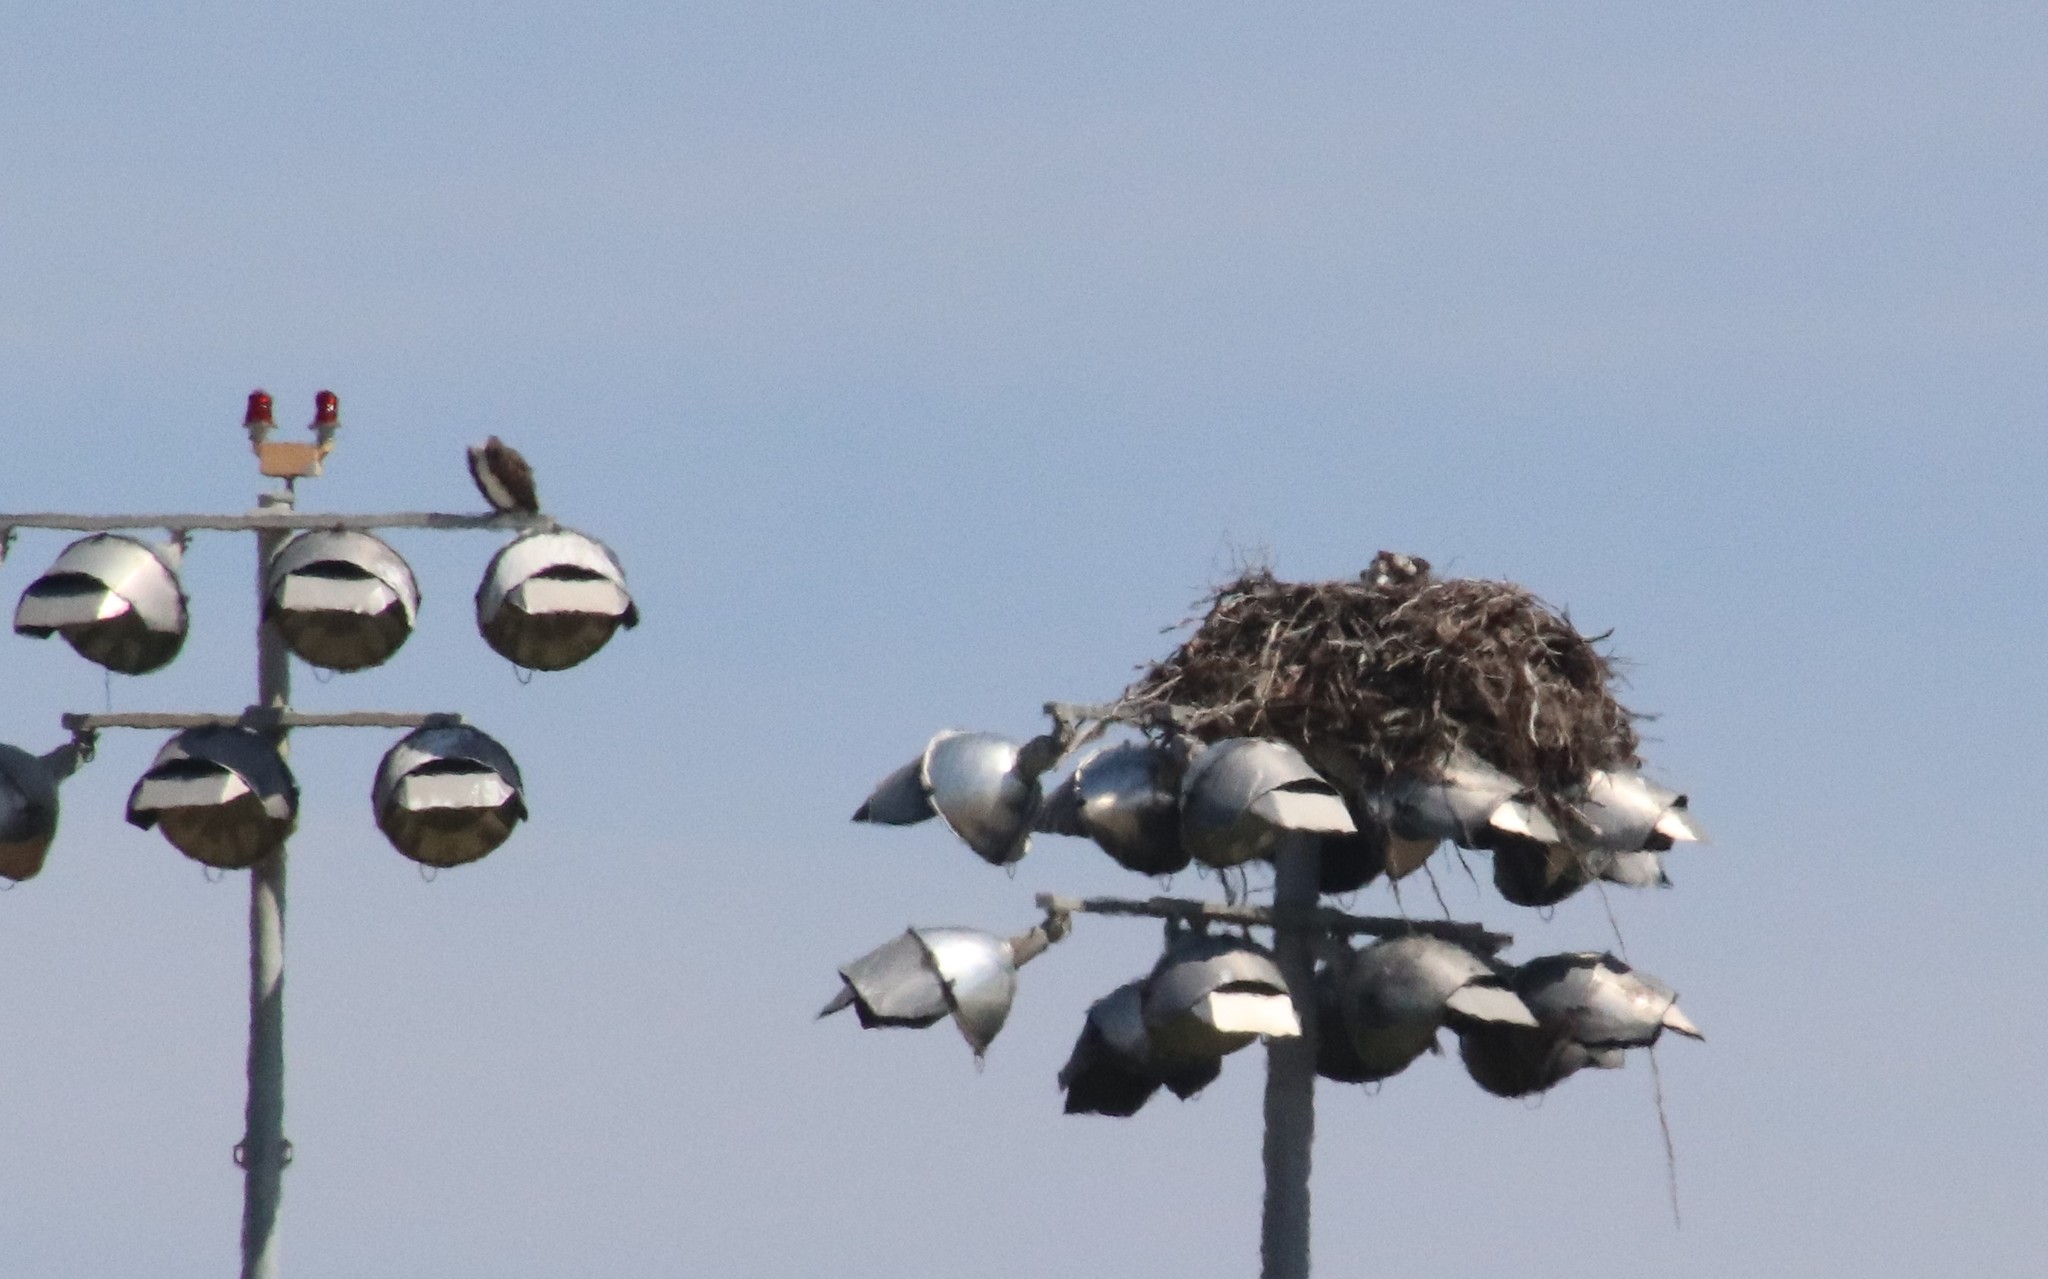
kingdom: Animalia
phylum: Chordata
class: Aves
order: Accipitriformes
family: Pandionidae
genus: Pandion
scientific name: Pandion haliaetus
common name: Osprey
